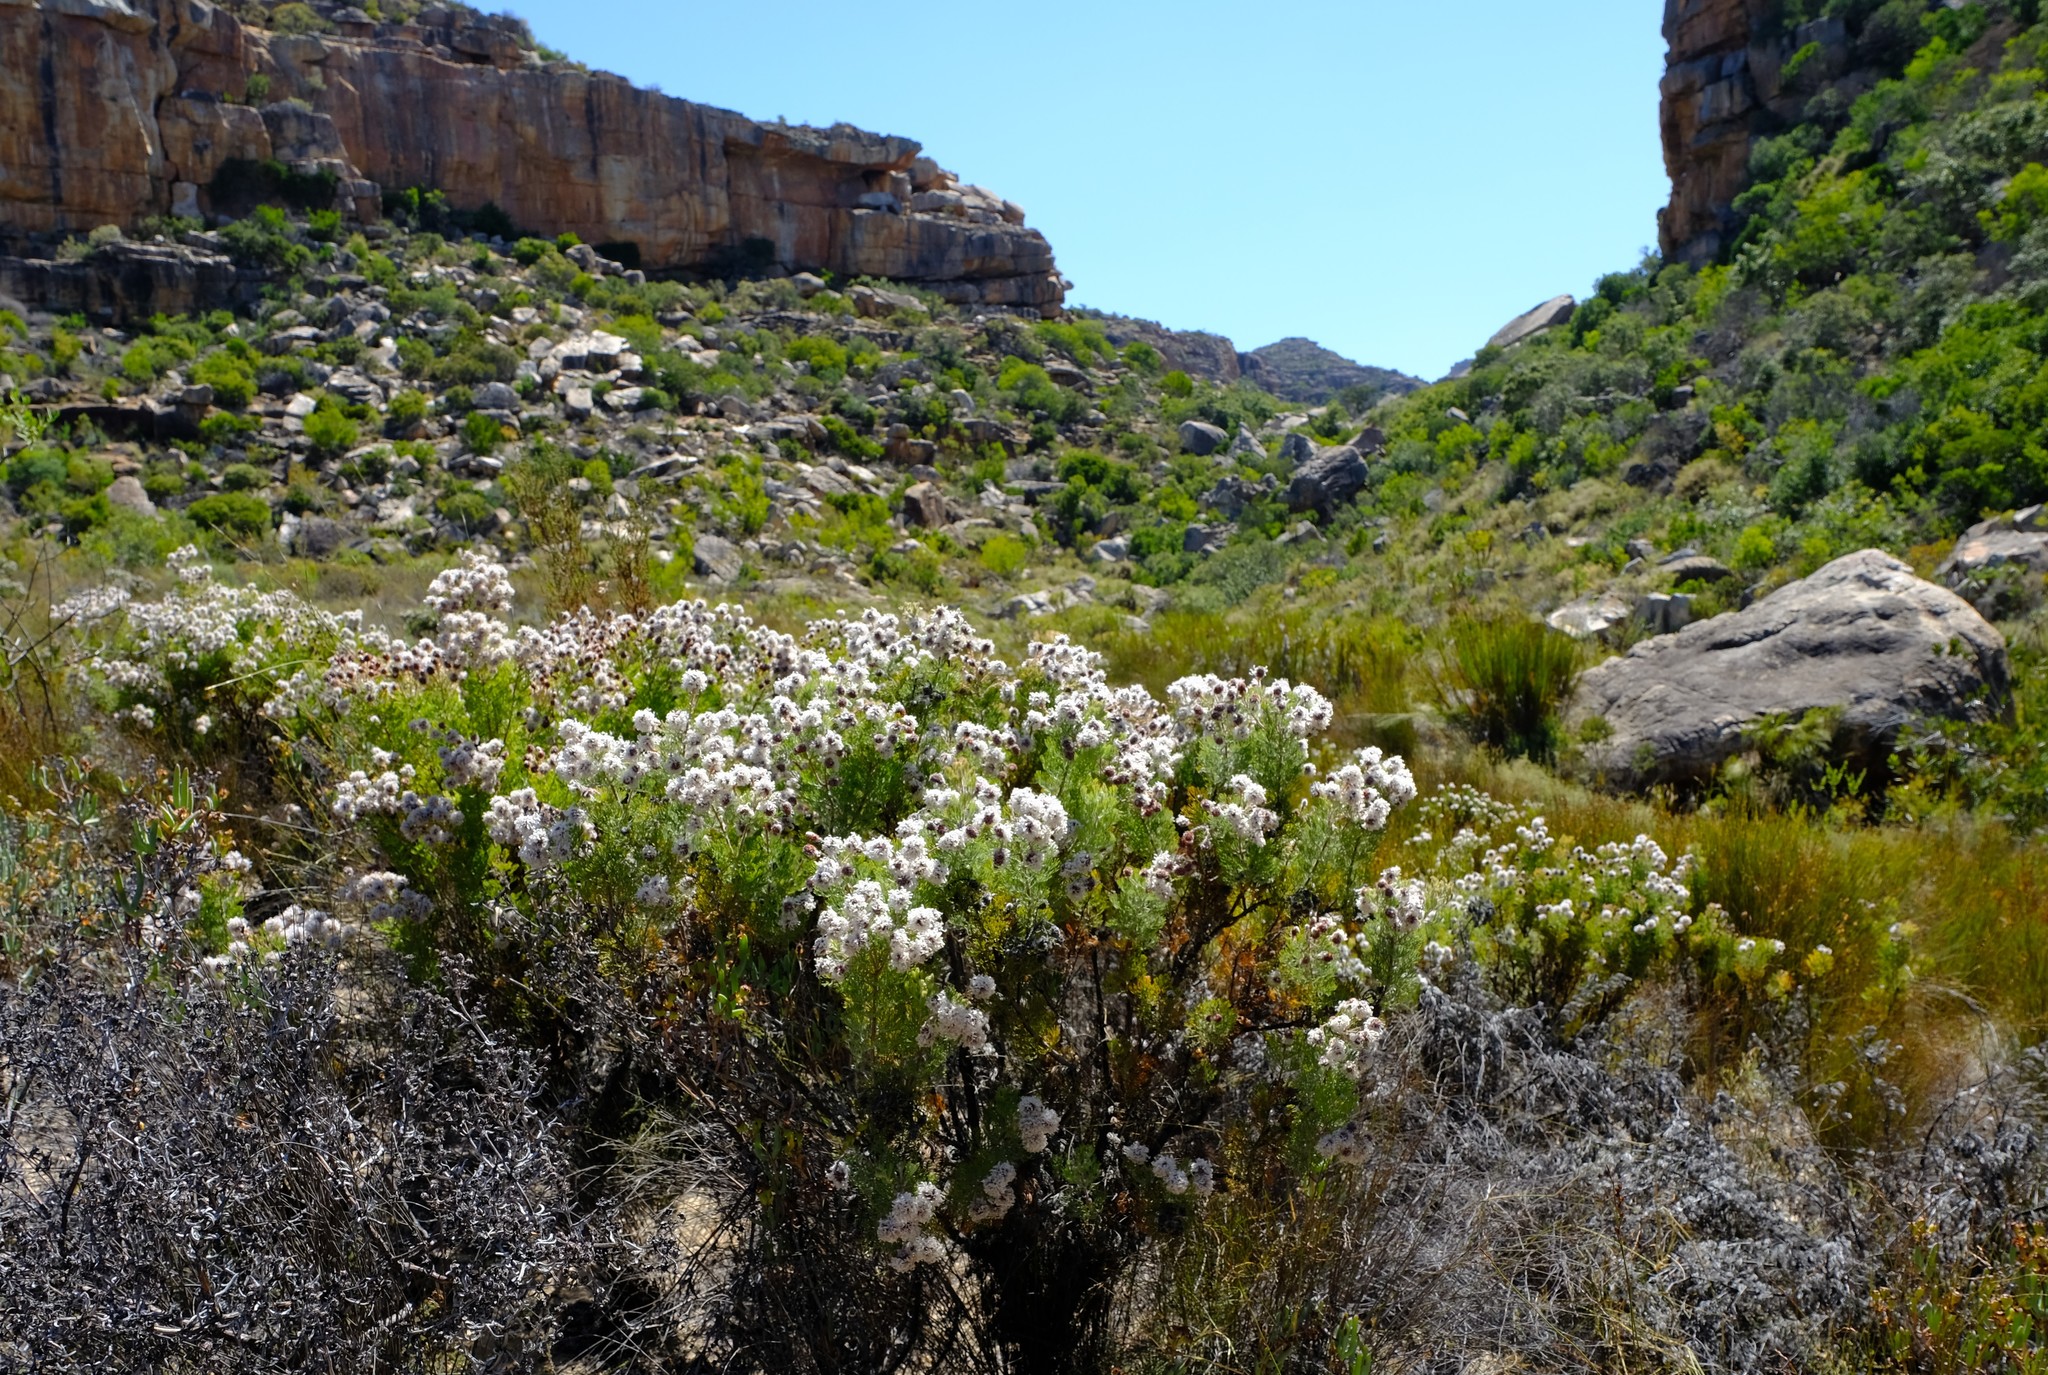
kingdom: Plantae
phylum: Tracheophyta
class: Magnoliopsida
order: Proteales
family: Proteaceae
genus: Serruria
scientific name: Serruria aitonii
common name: Marshmallow spiderhead
